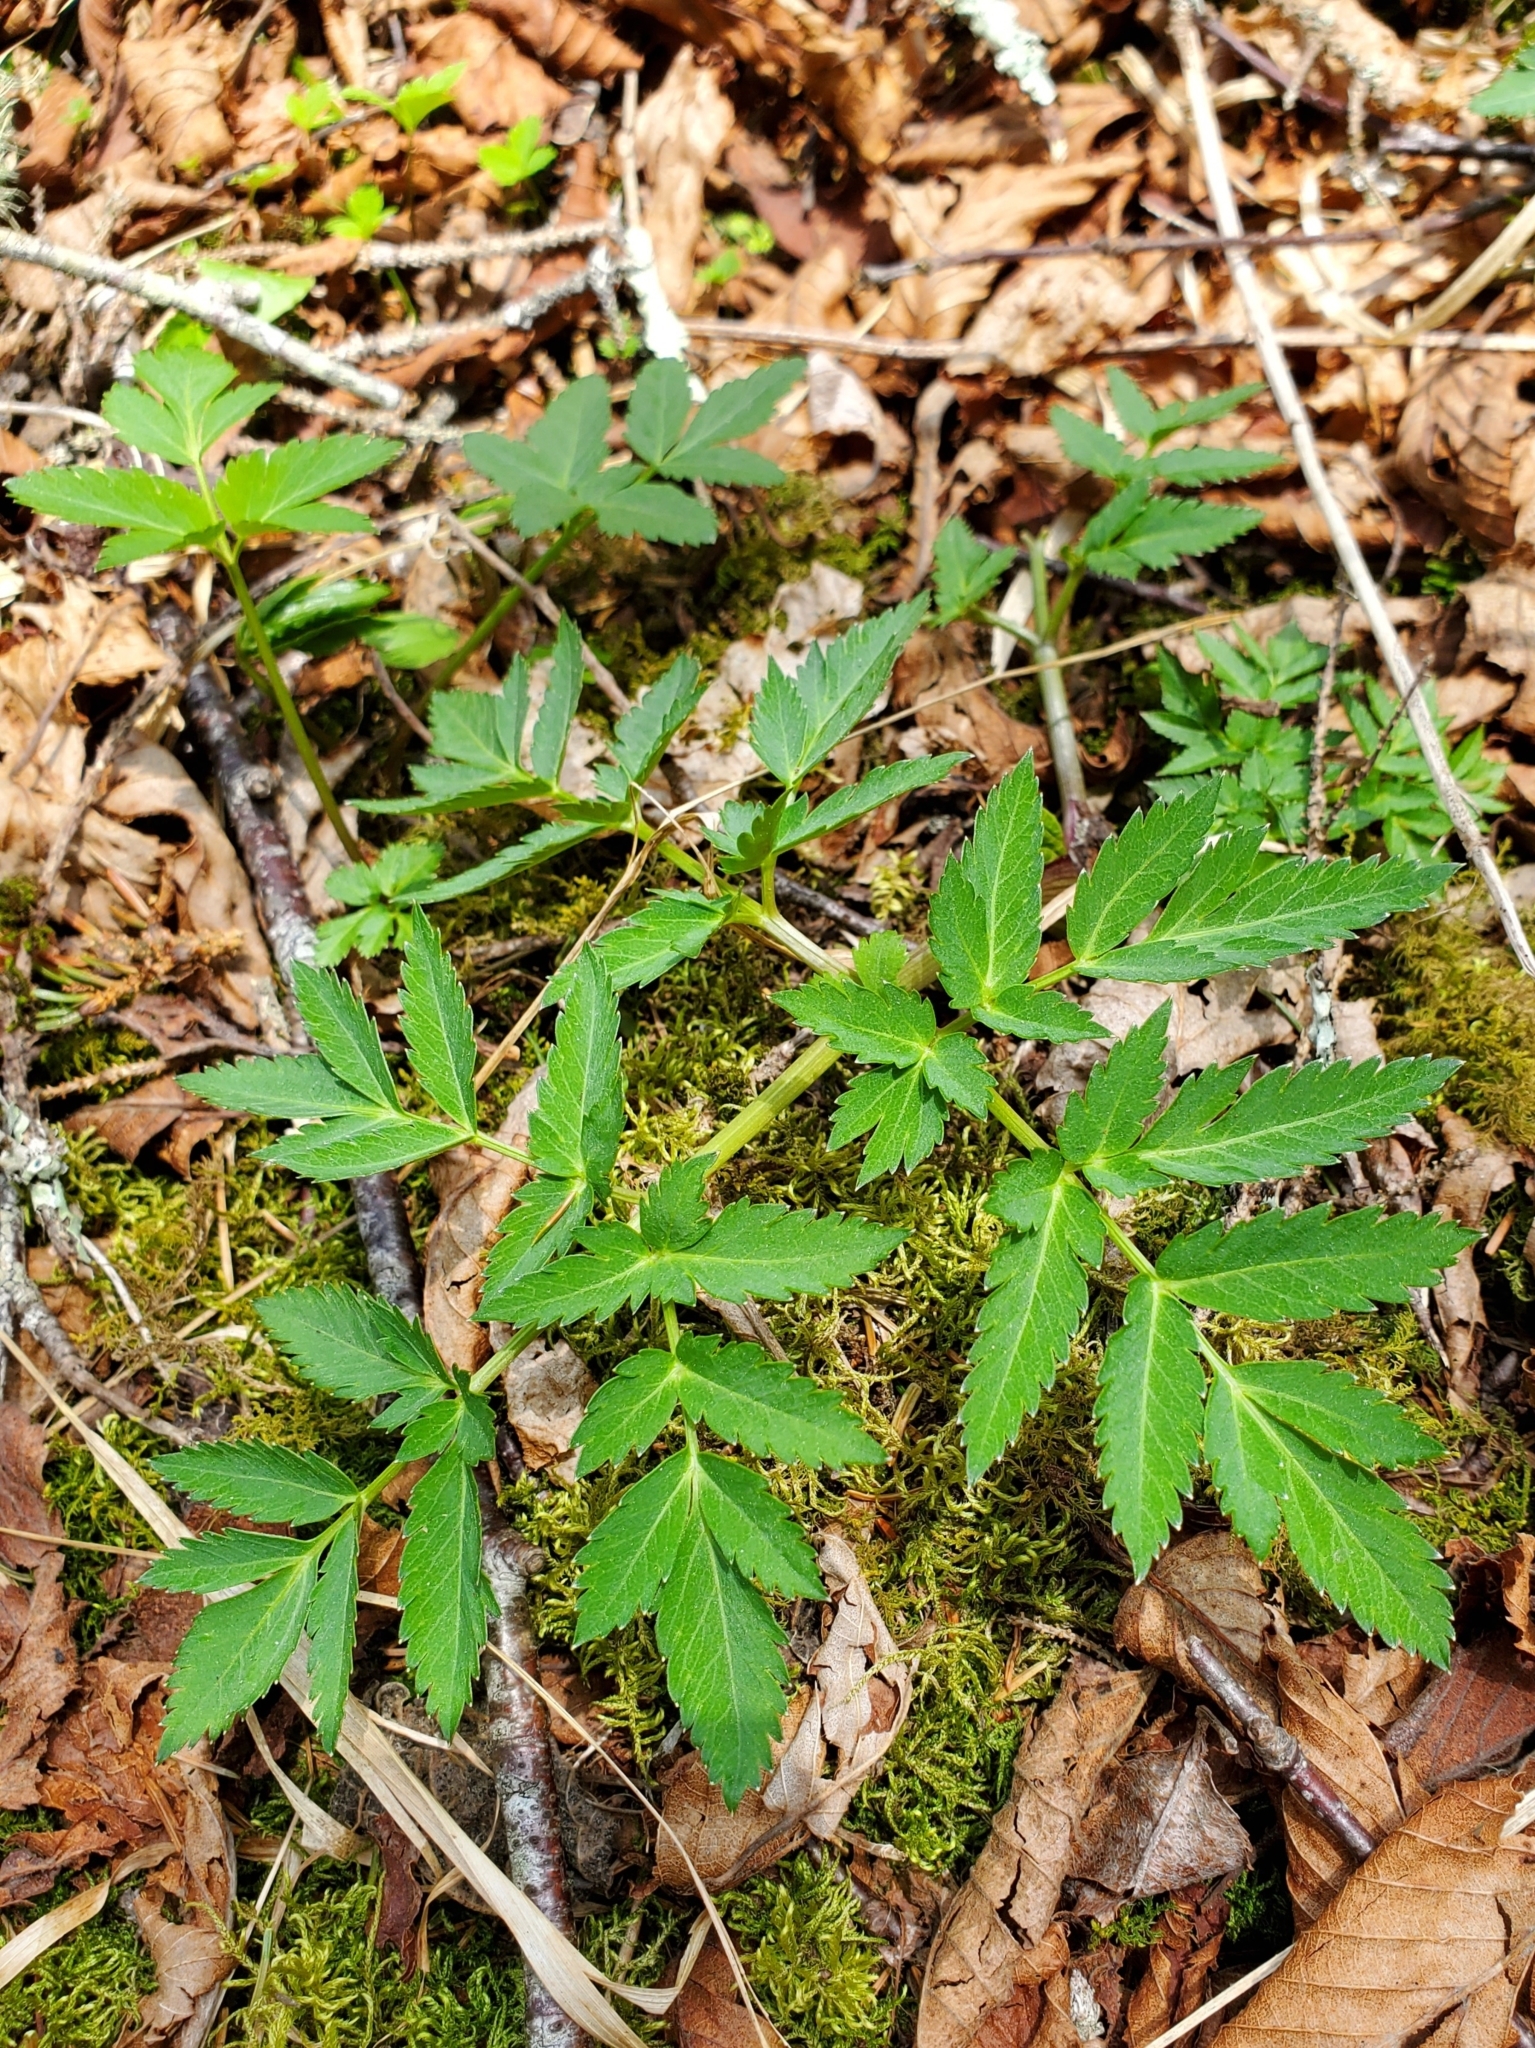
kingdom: Plantae
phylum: Tracheophyta
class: Magnoliopsida
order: Apiales
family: Apiaceae
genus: Angelica
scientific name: Angelica triquinata
